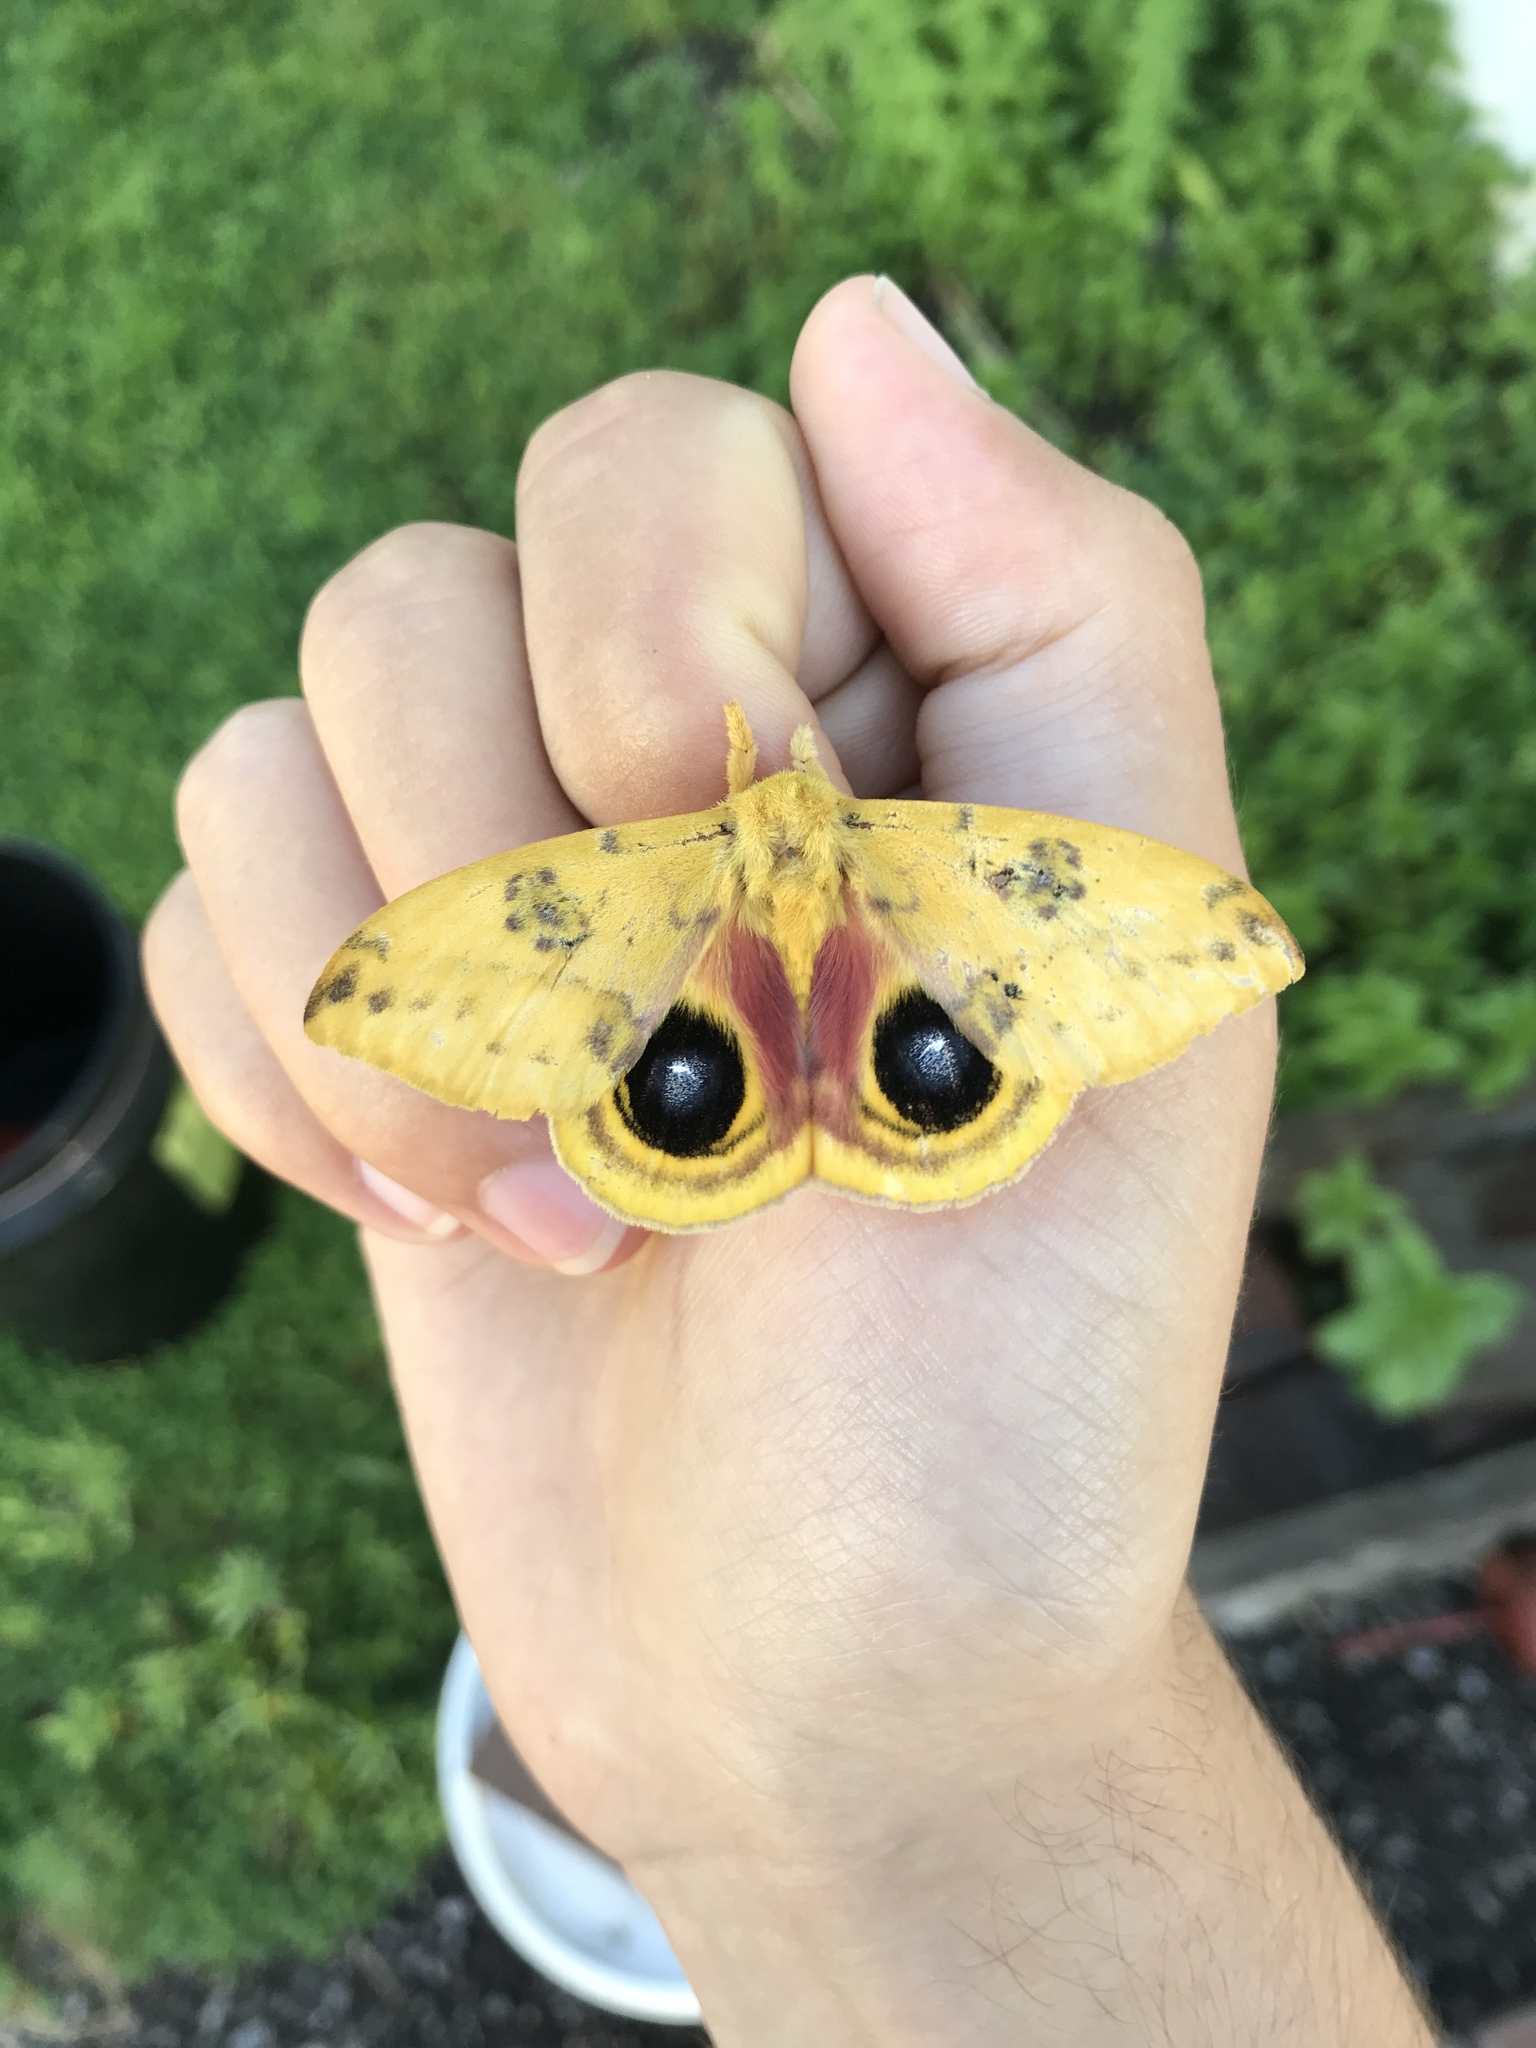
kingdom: Animalia
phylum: Arthropoda
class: Insecta
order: Lepidoptera
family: Saturniidae
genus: Automeris
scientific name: Automeris io
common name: Io moth
